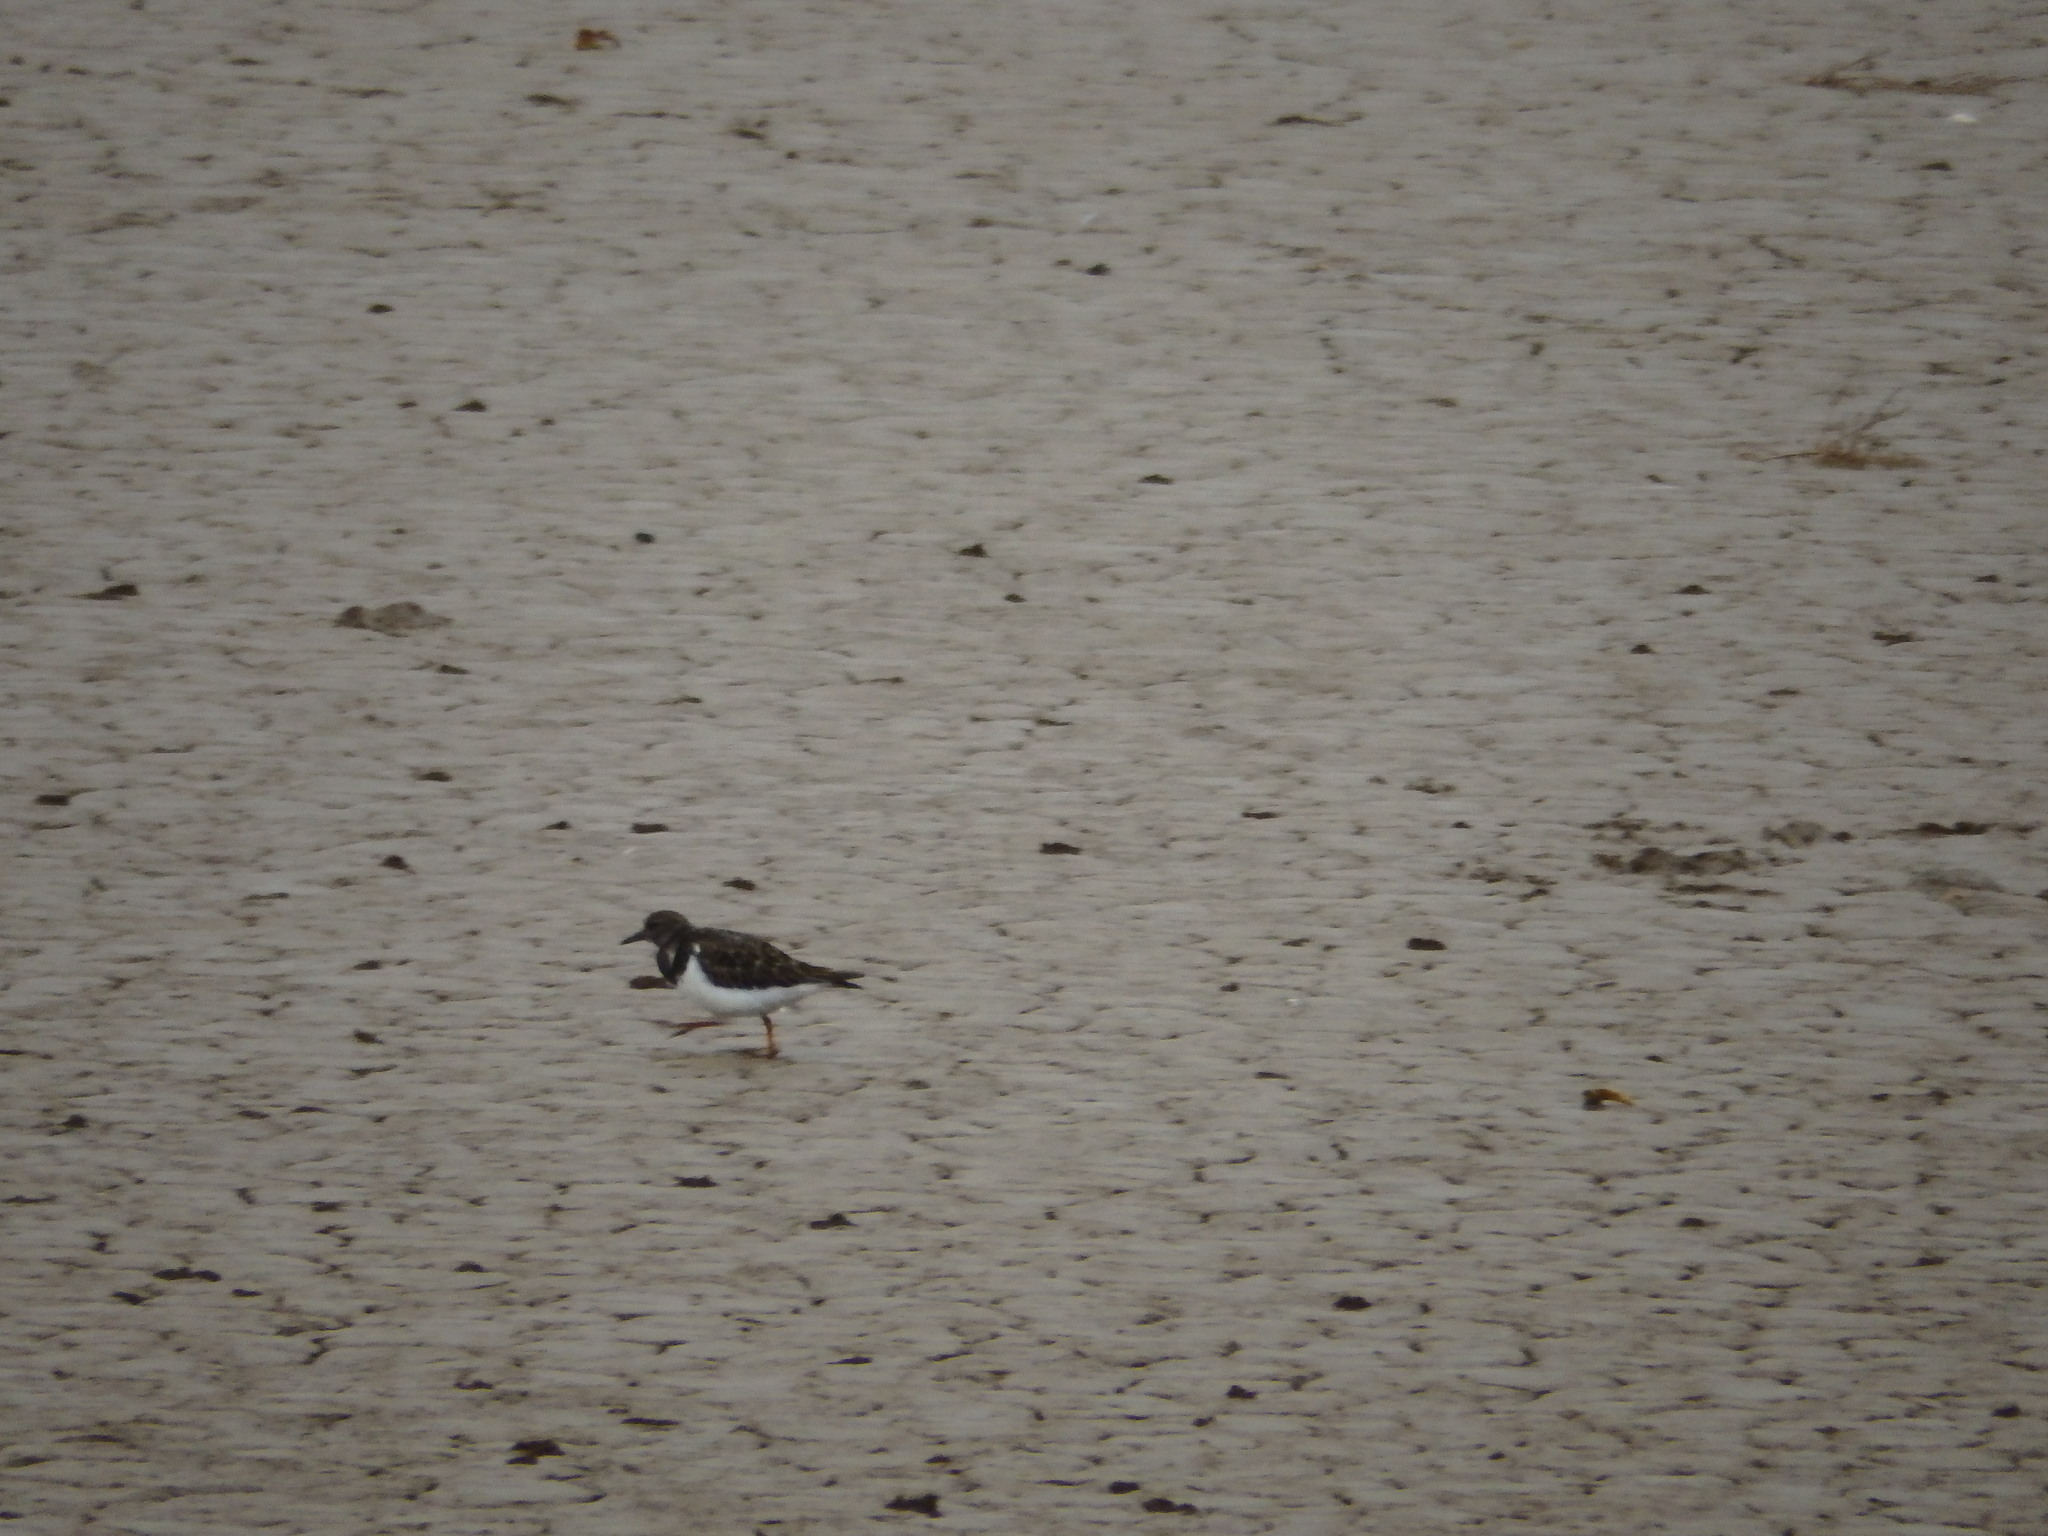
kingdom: Animalia
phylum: Chordata
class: Aves
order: Charadriiformes
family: Scolopacidae
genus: Arenaria
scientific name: Arenaria interpres
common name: Ruddy turnstone
